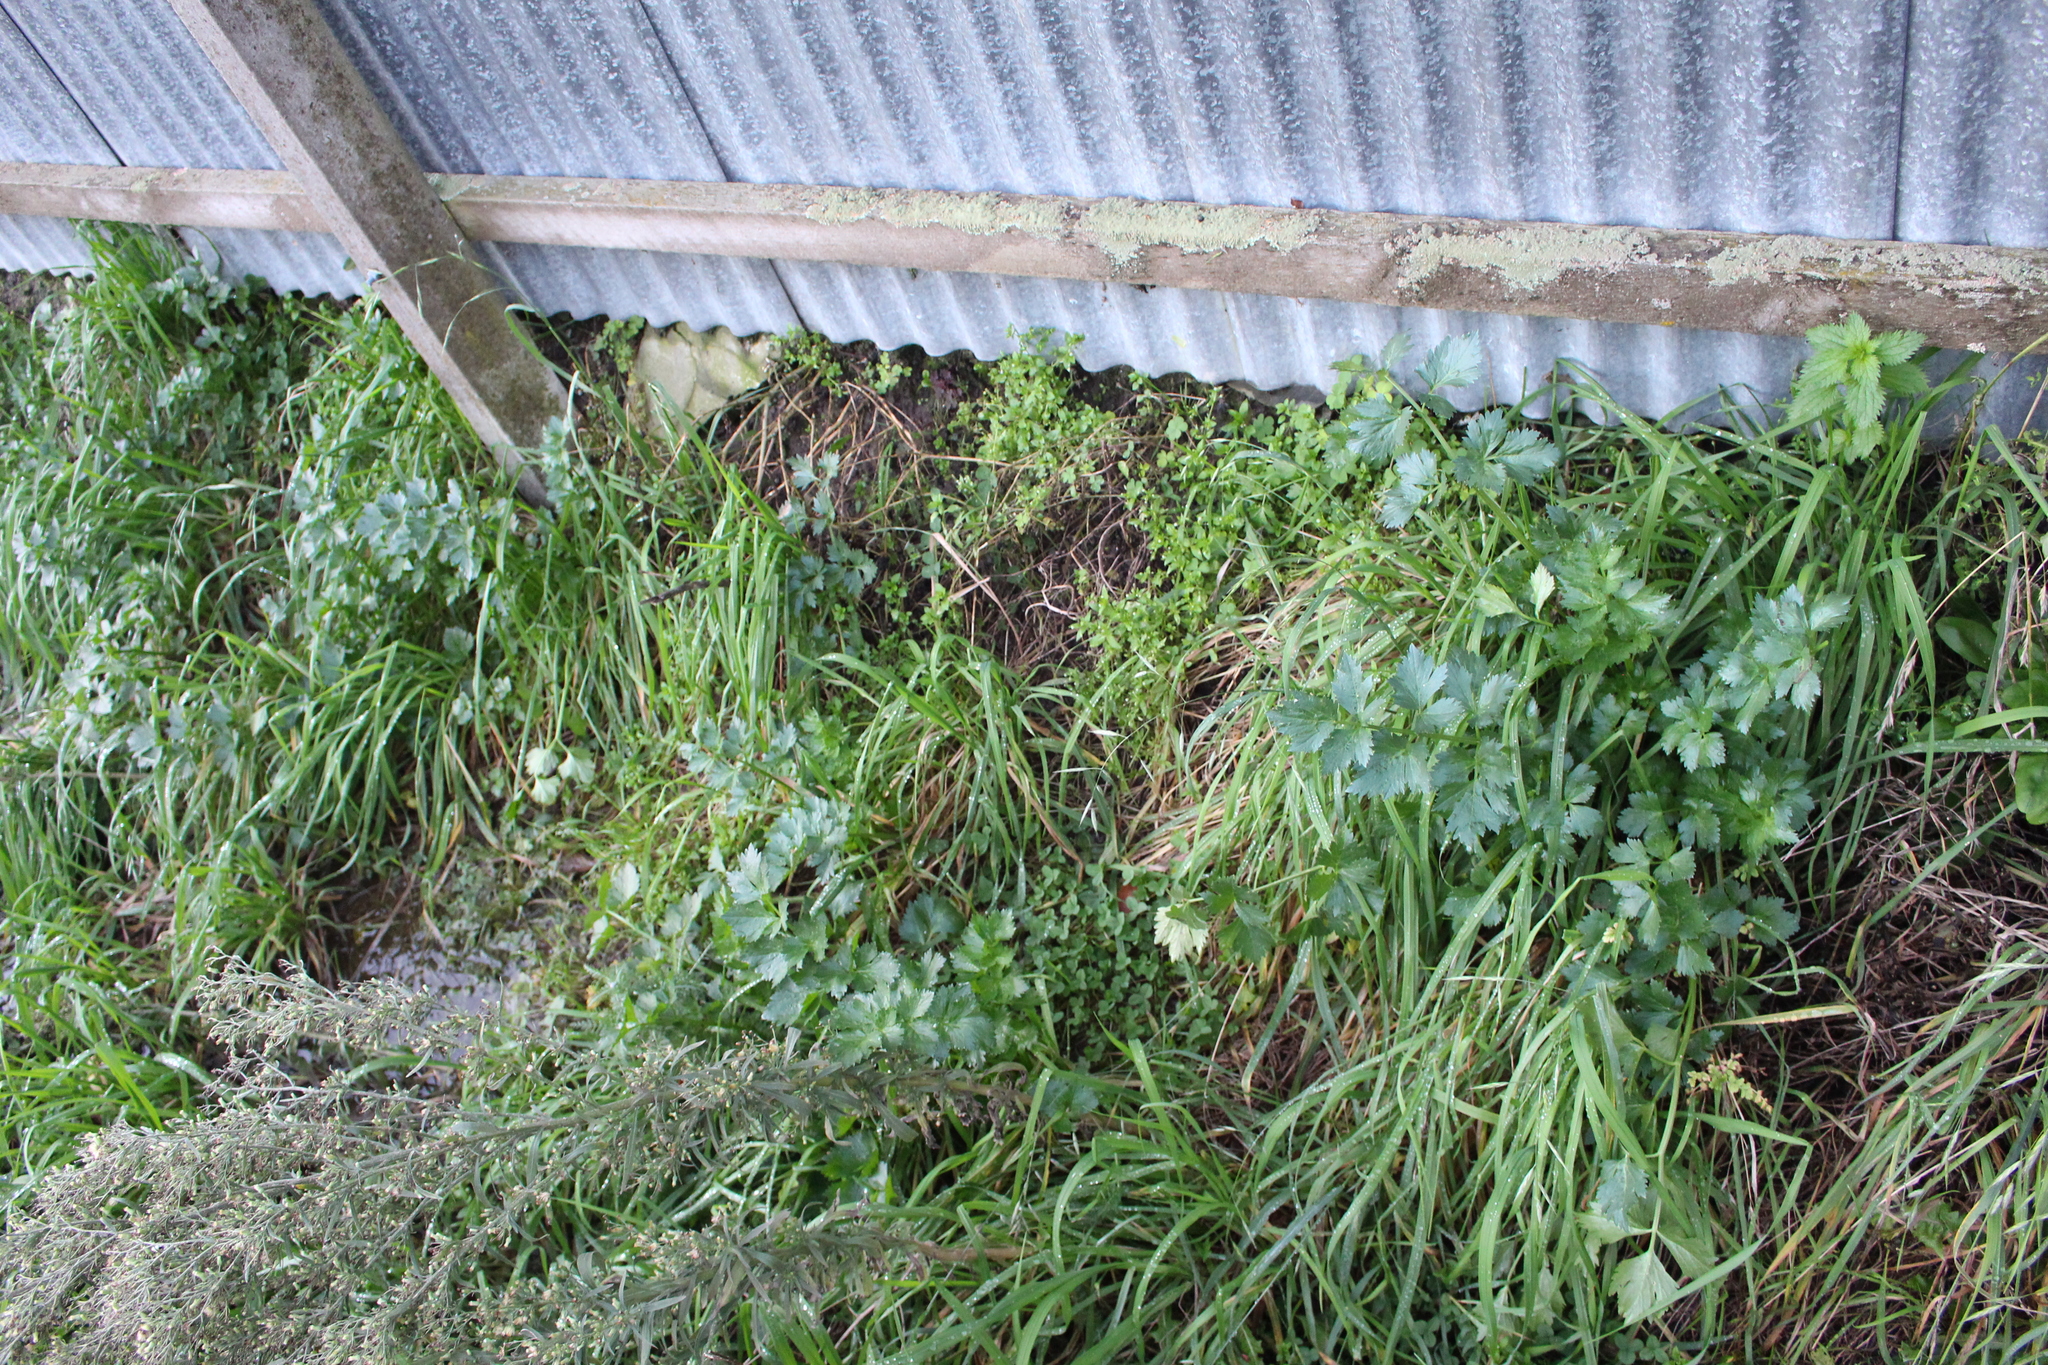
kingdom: Plantae
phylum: Tracheophyta
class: Magnoliopsida
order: Apiales
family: Apiaceae
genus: Apium
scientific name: Apium graveolens
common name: Wild celery
